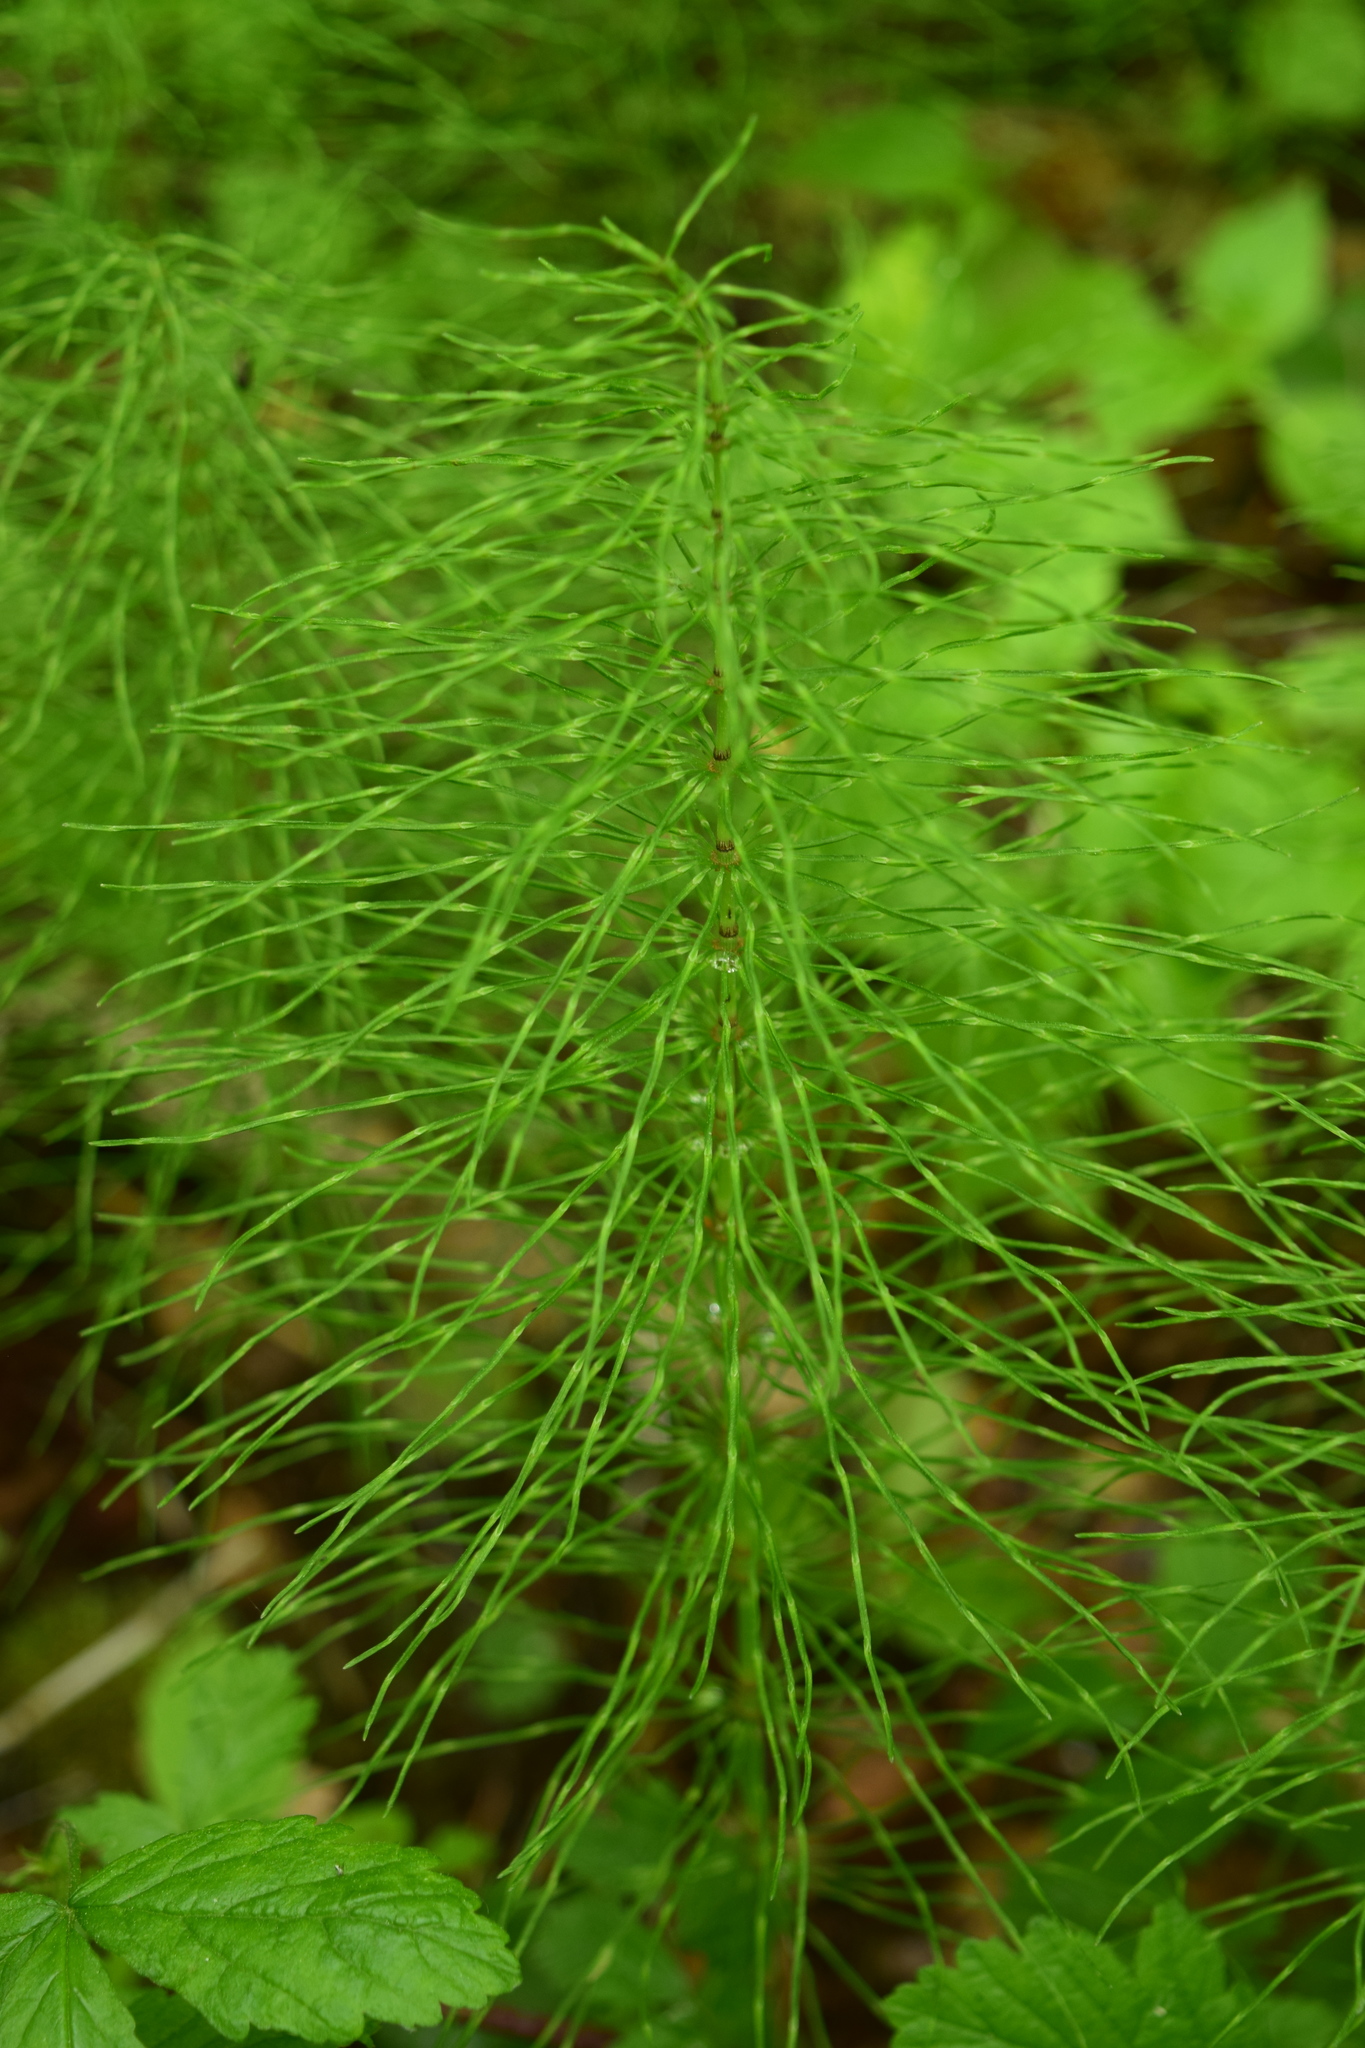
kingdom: Plantae
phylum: Tracheophyta
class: Polypodiopsida
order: Equisetales
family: Equisetaceae
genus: Equisetum
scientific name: Equisetum pratense
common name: Meadow horsetail
